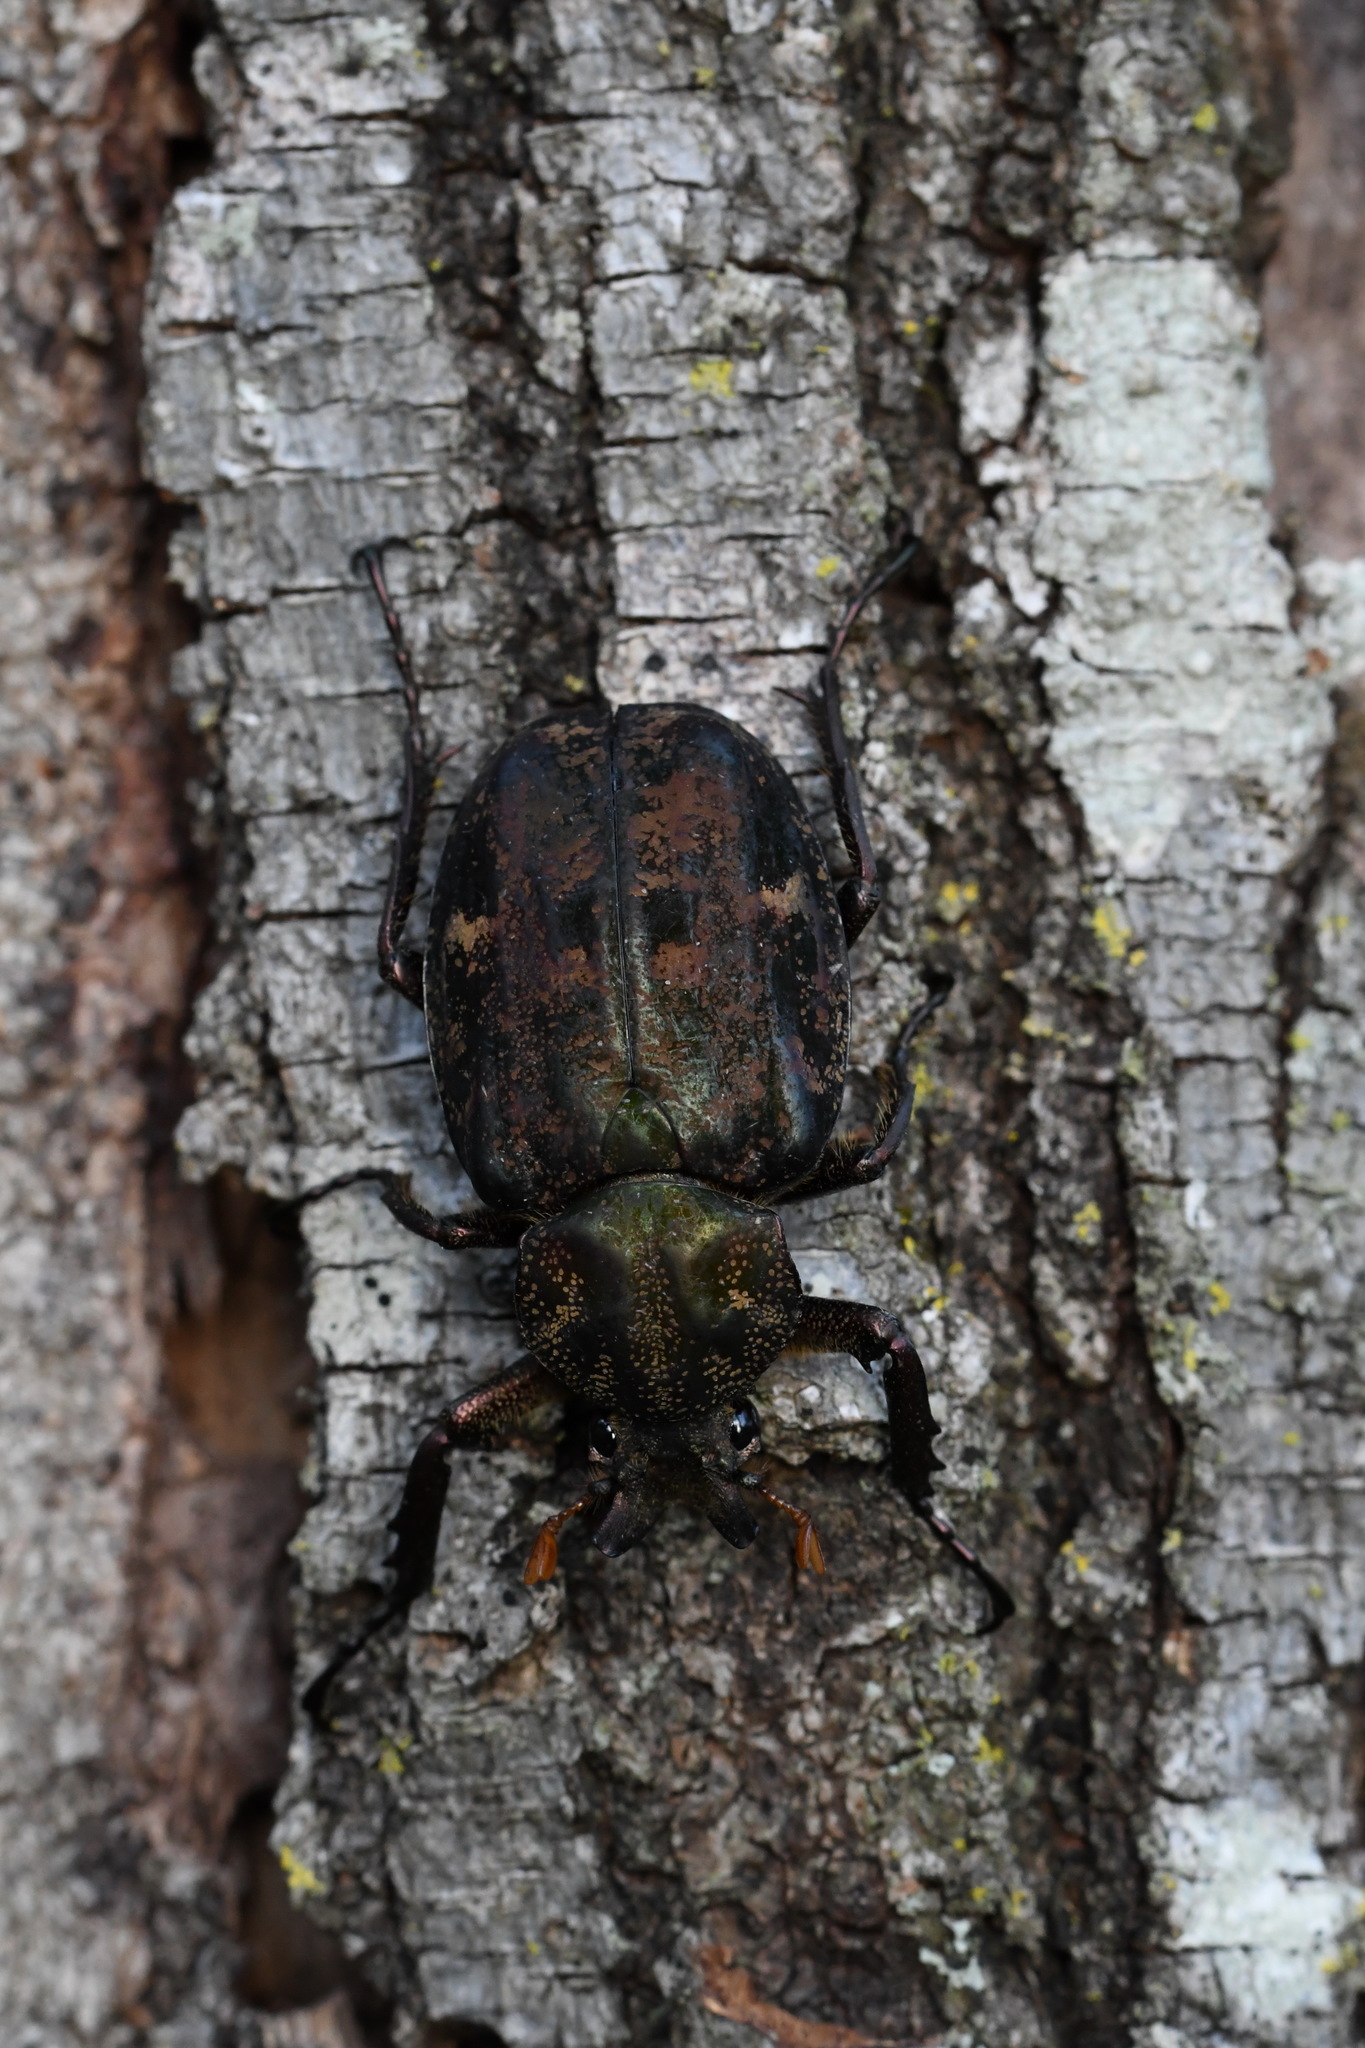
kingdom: Animalia
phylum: Arthropoda
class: Insecta
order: Coleoptera
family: Scarabaeidae
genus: Inca
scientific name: Inca bonplandi
